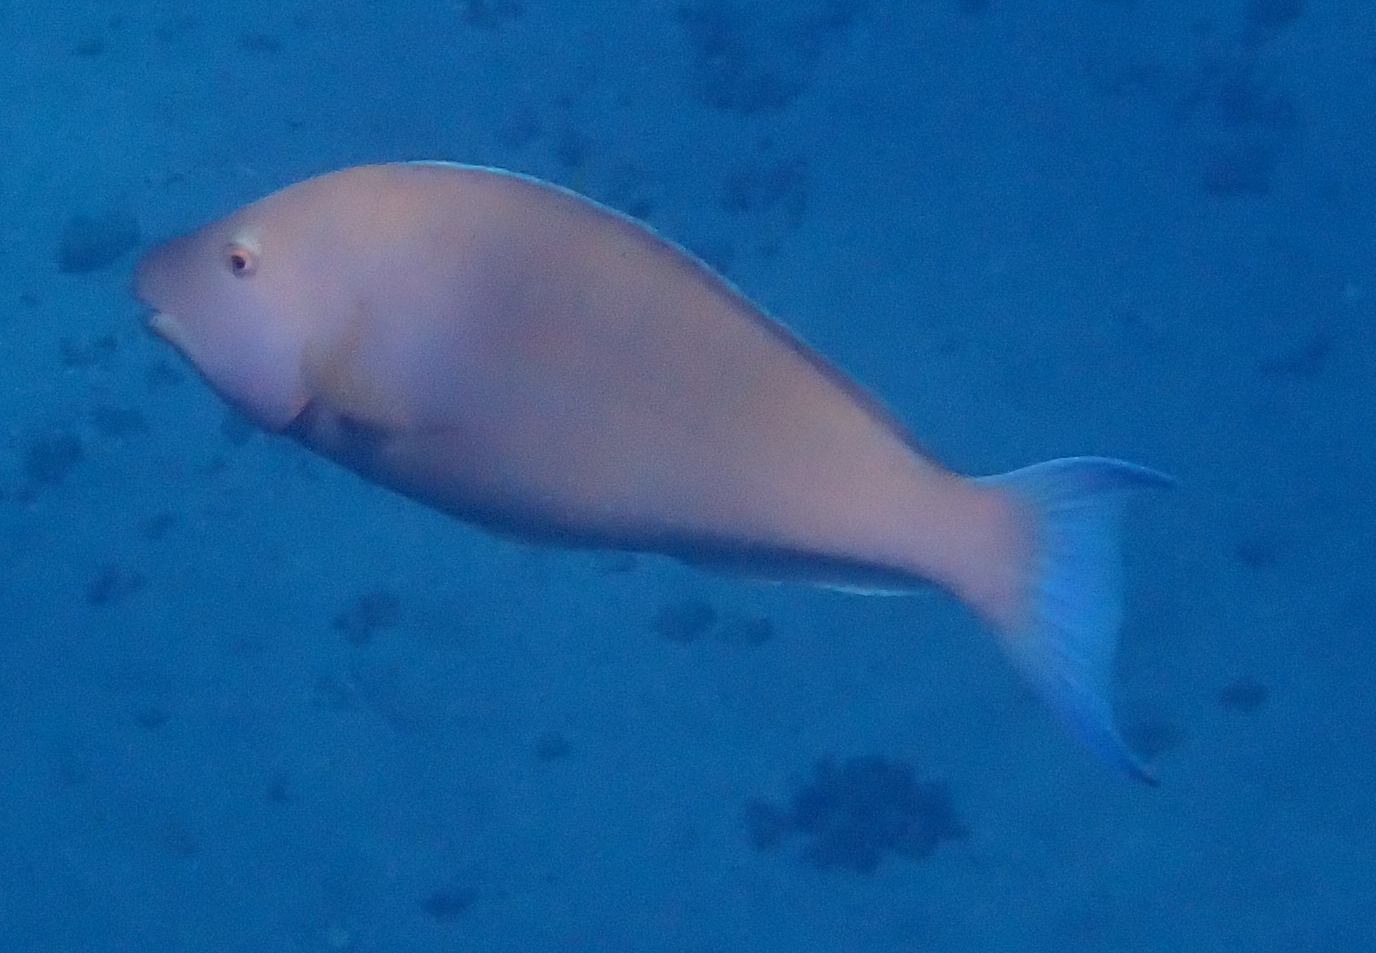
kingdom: Animalia
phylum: Chordata
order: Perciformes
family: Scaridae
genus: Hipposcarus
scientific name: Hipposcarus harid
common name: Candelamoa parrotfish
